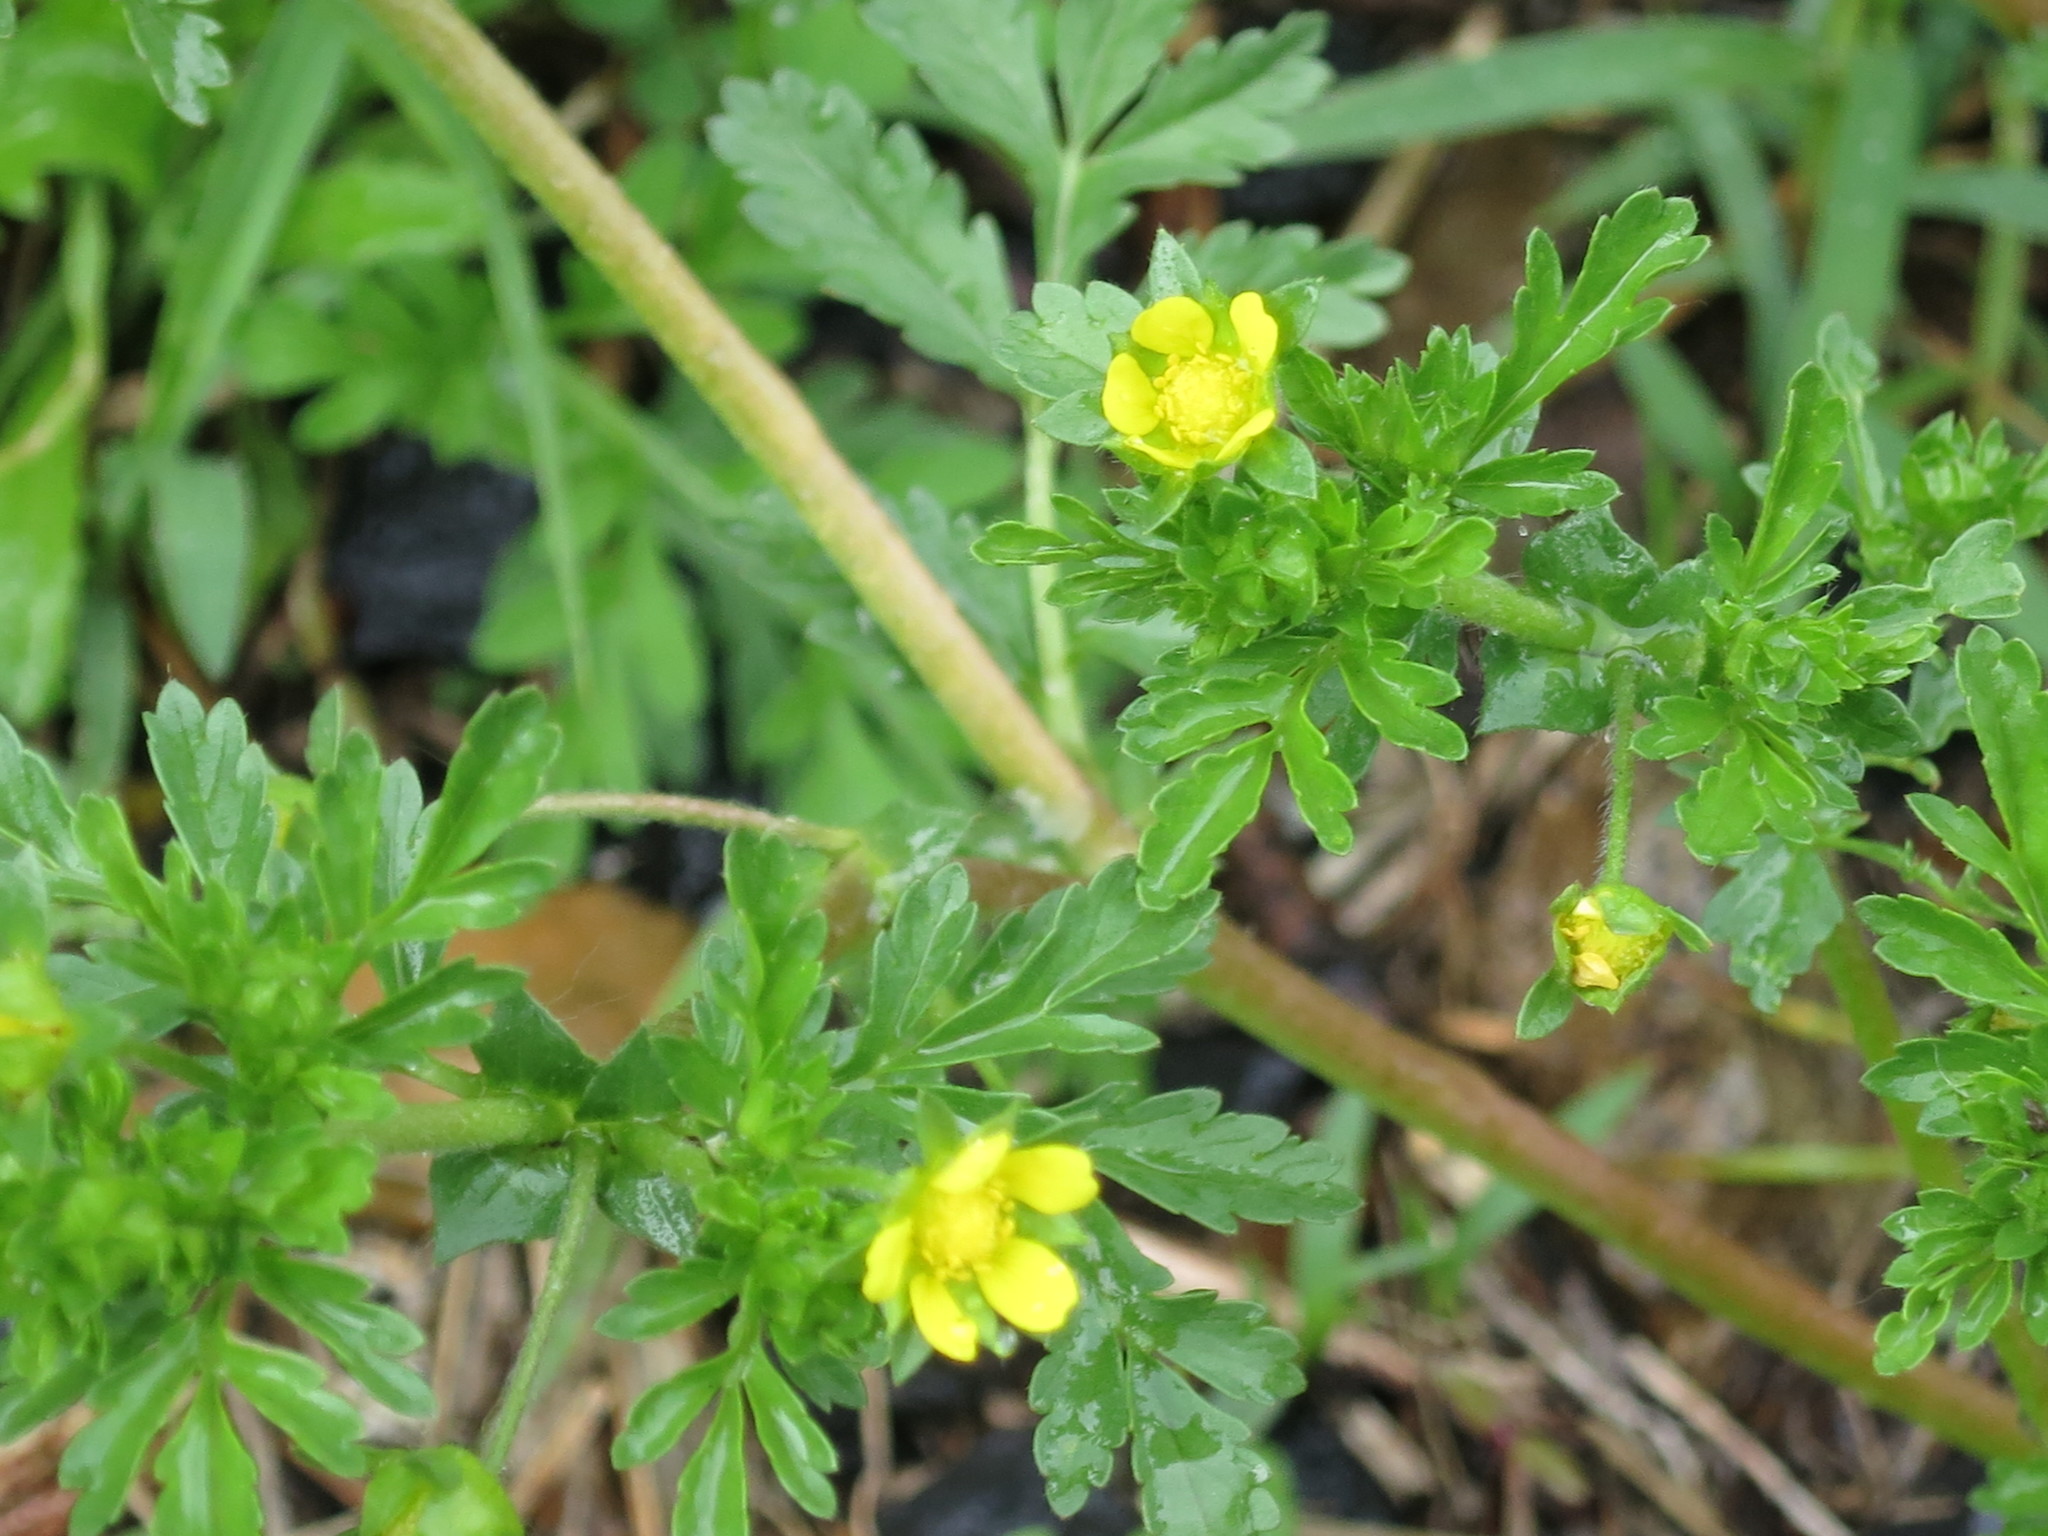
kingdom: Plantae
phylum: Tracheophyta
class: Magnoliopsida
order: Rosales
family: Rosaceae
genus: Potentilla
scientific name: Potentilla supina
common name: Prostrate cinquefoil
